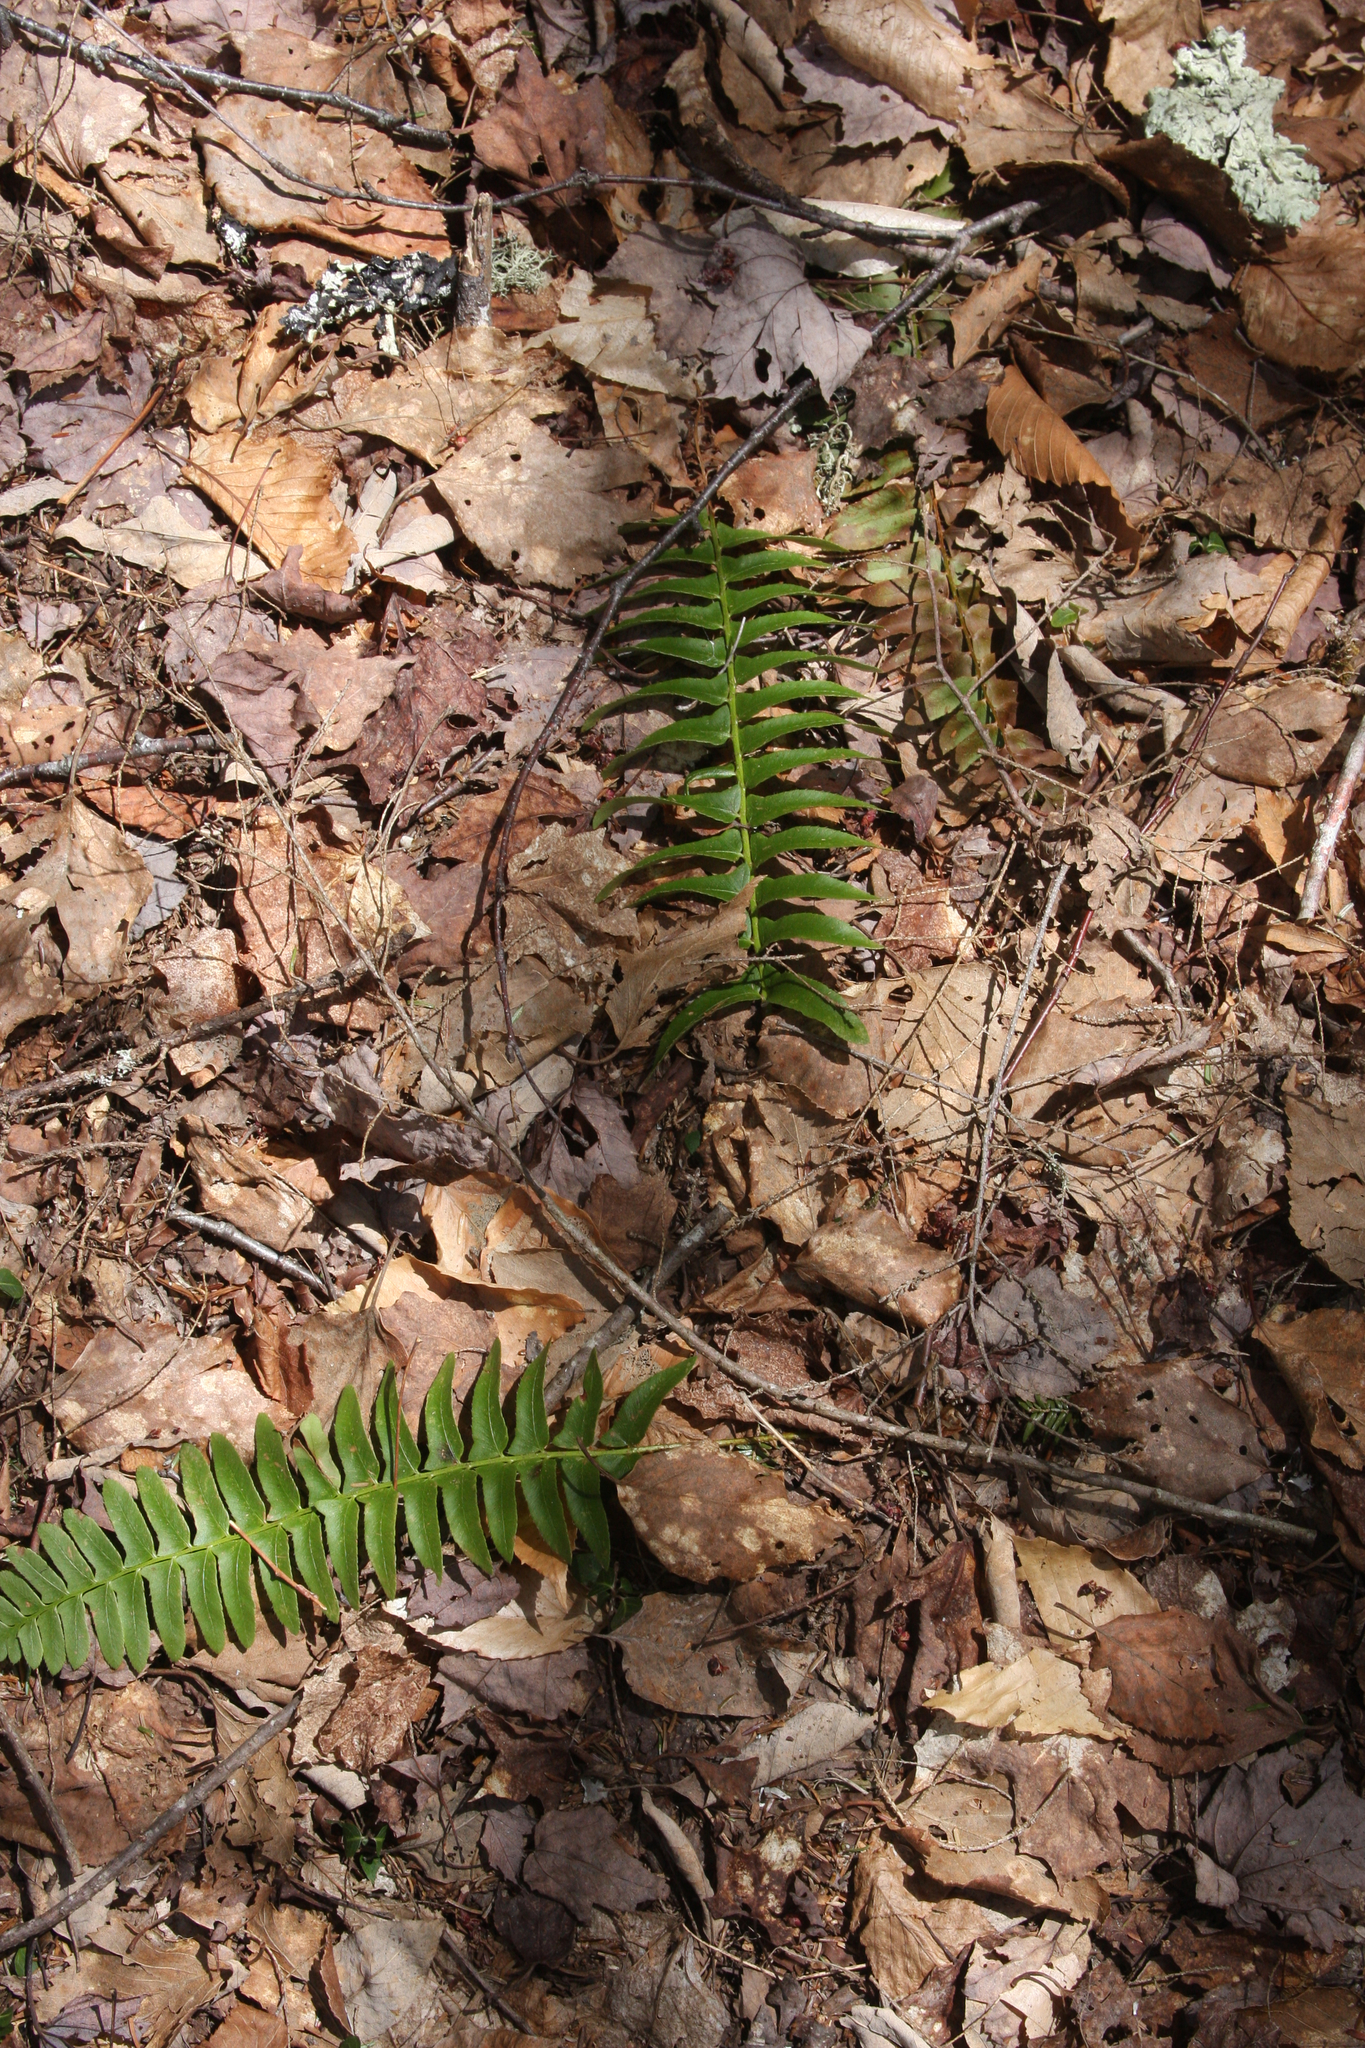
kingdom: Plantae
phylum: Tracheophyta
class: Polypodiopsida
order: Polypodiales
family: Dryopteridaceae
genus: Polystichum
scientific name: Polystichum acrostichoides
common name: Christmas fern
